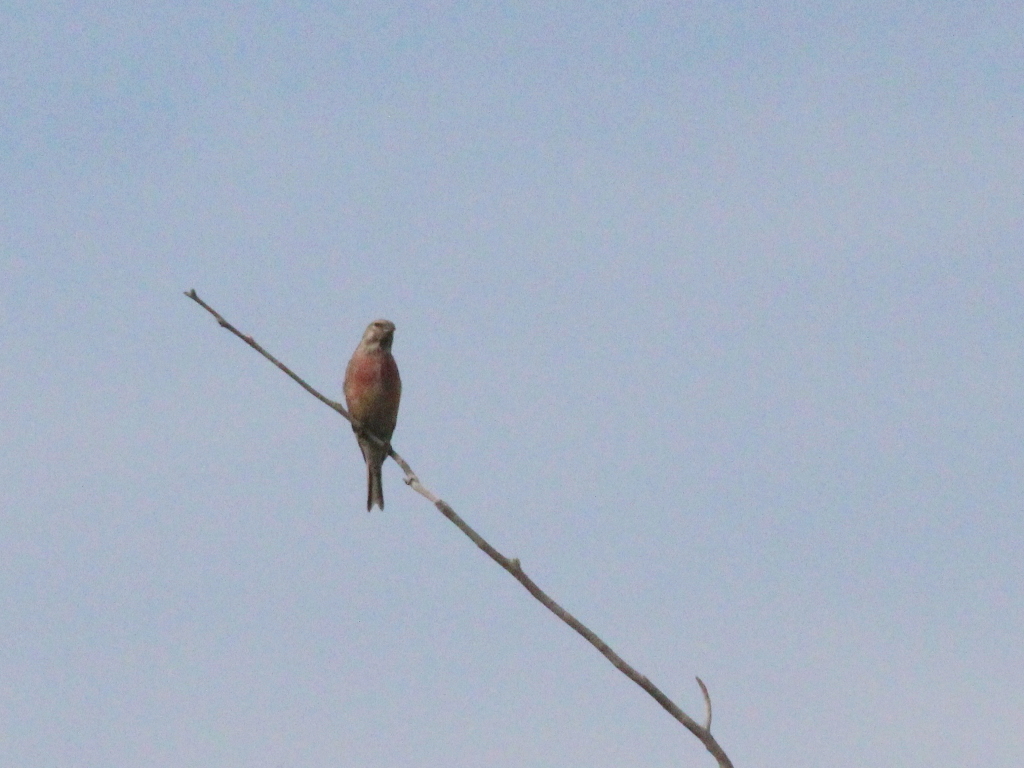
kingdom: Animalia
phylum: Chordata
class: Aves
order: Passeriformes
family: Fringillidae
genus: Linaria
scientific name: Linaria cannabina
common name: Common linnet
